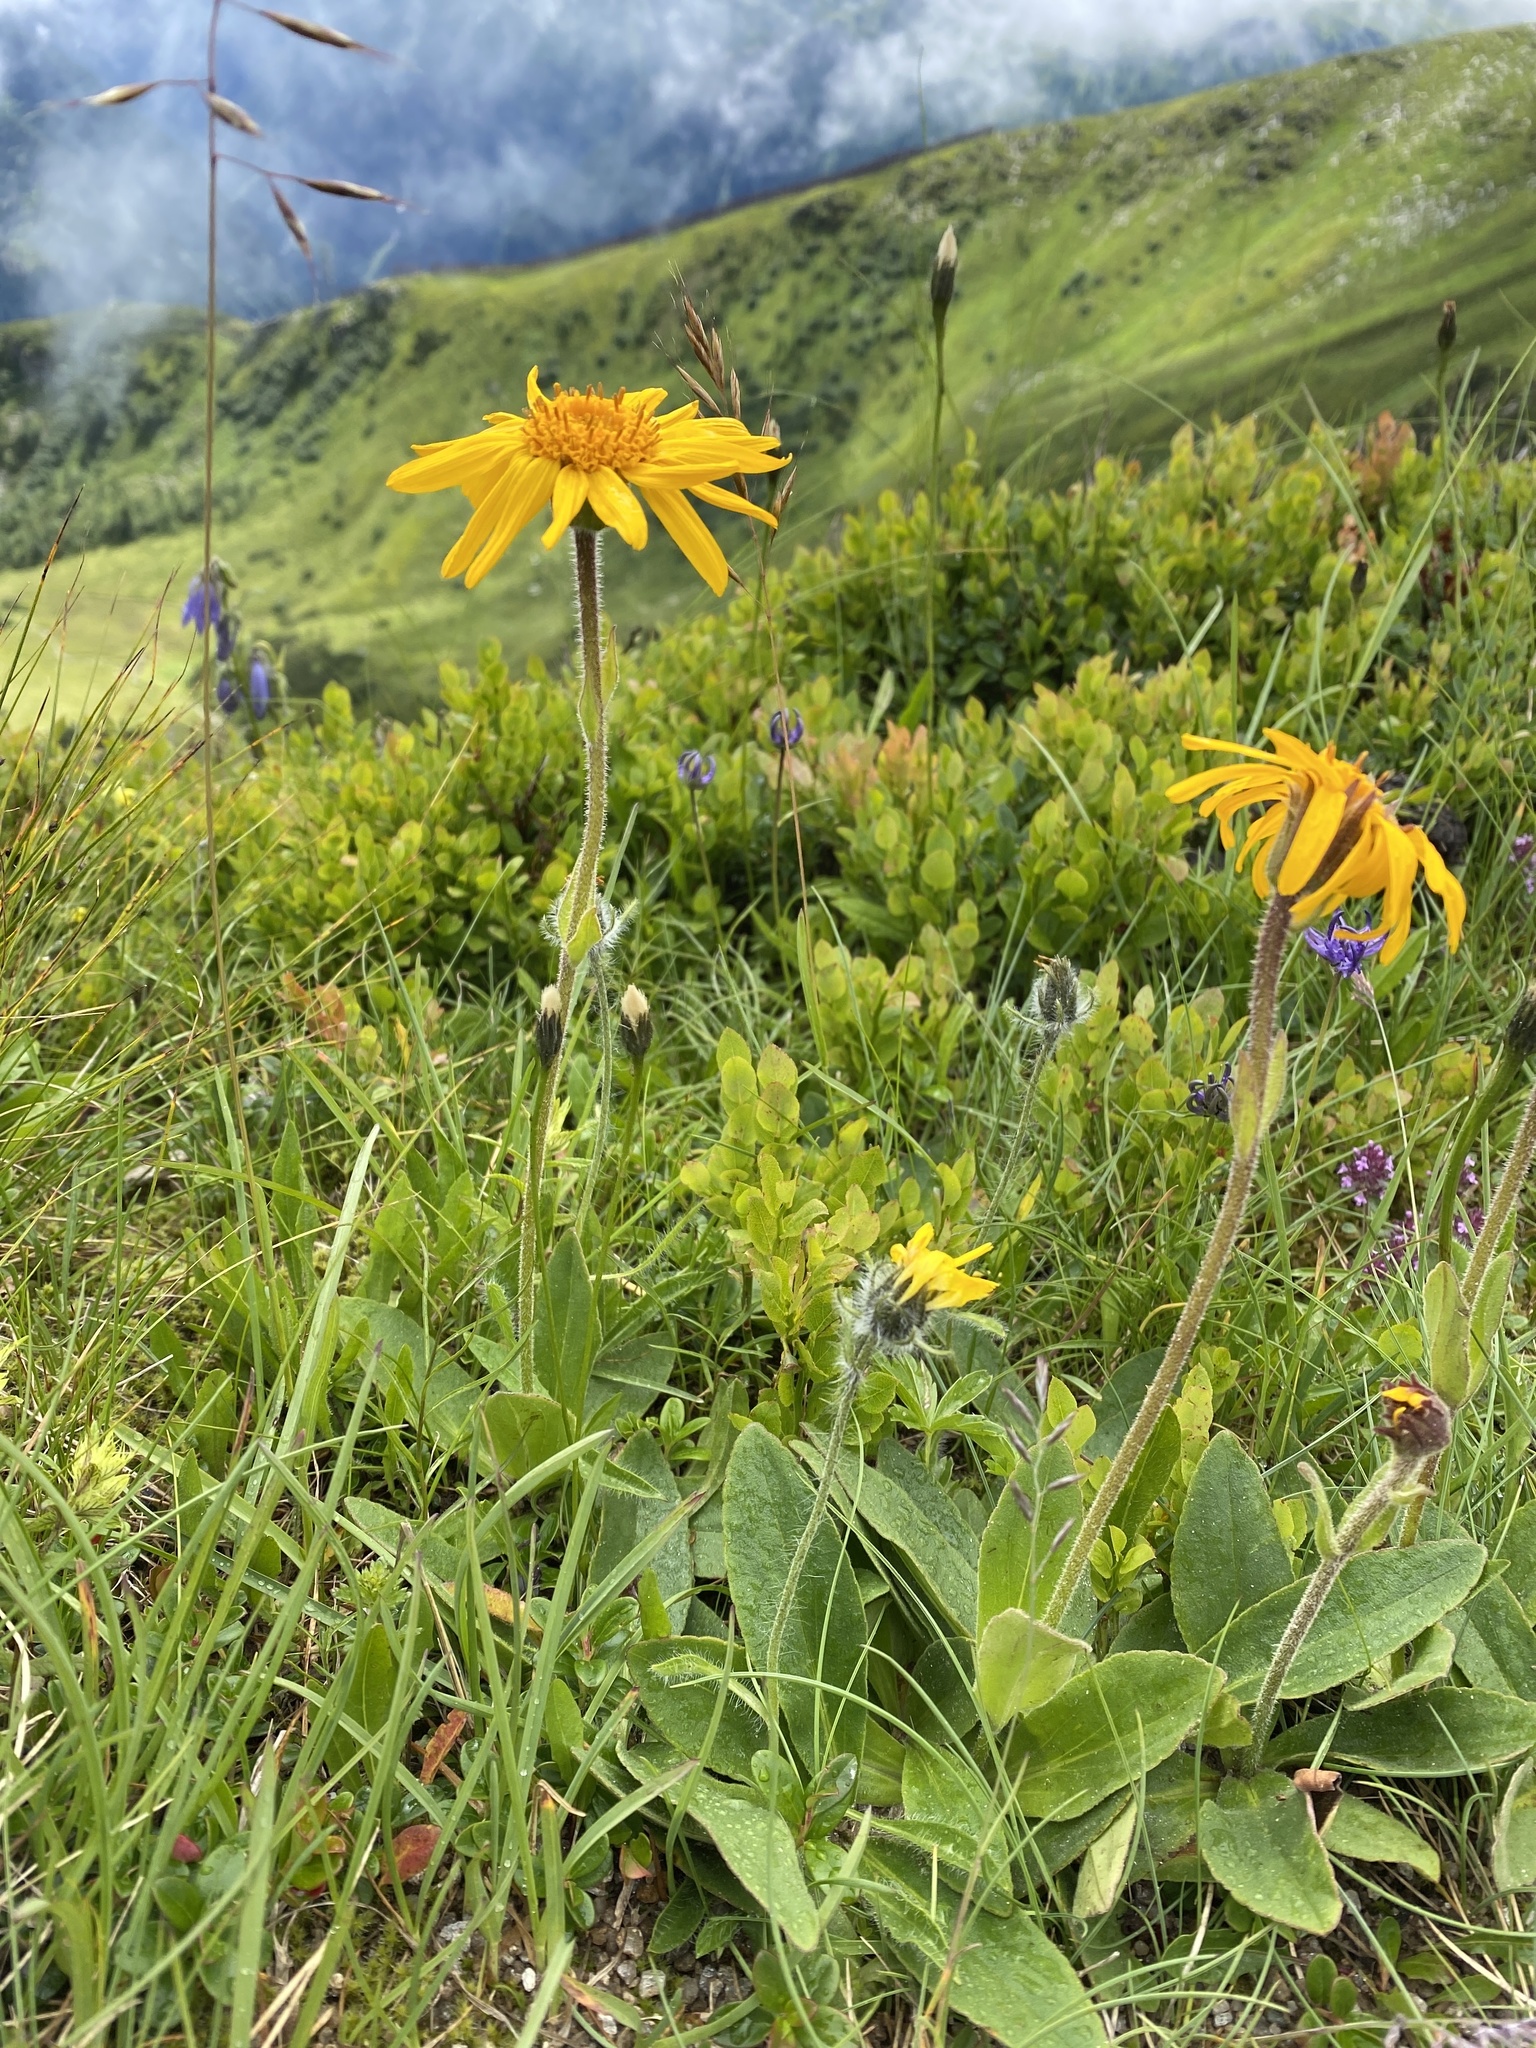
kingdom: Plantae
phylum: Tracheophyta
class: Magnoliopsida
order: Asterales
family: Asteraceae
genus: Arnica
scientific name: Arnica montana
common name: Leopard's bane
